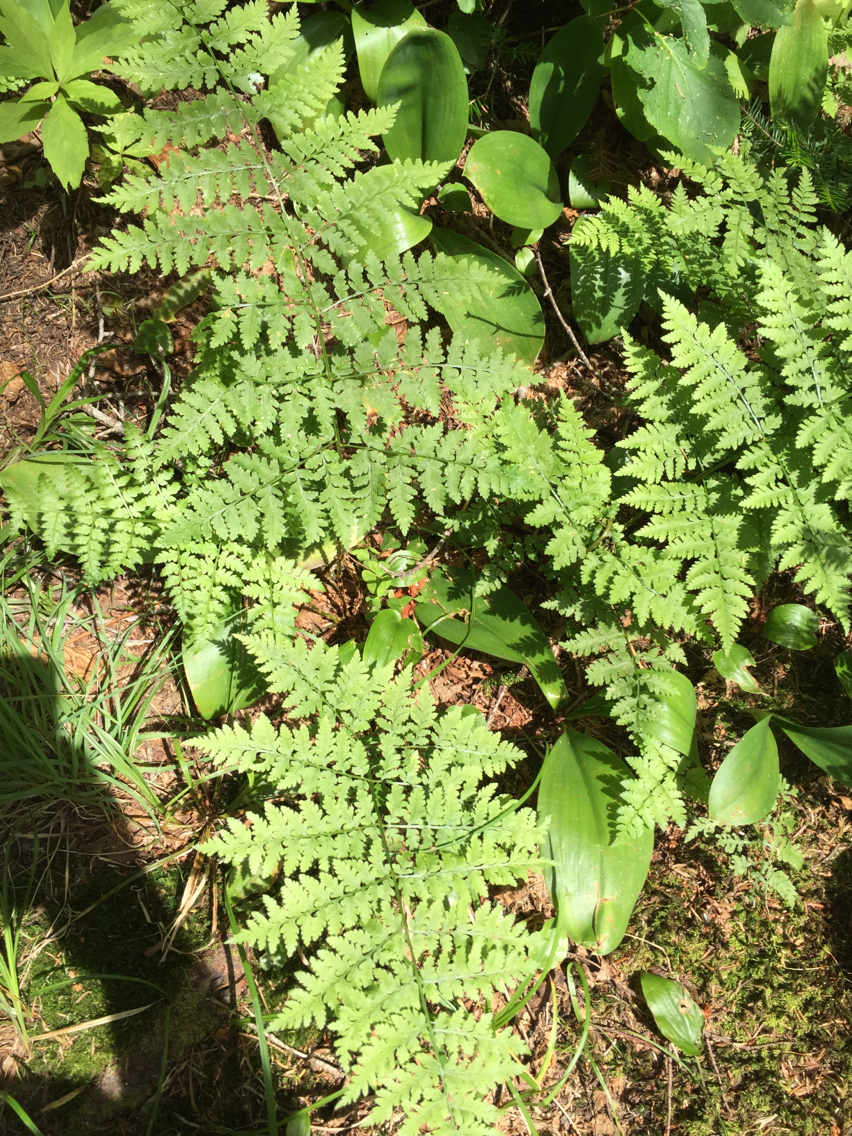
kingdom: Plantae
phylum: Tracheophyta
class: Polypodiopsida
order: Polypodiales
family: Dryopteridaceae
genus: Dryopteris
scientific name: Dryopteris campyloptera
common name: Mountain wood fern
